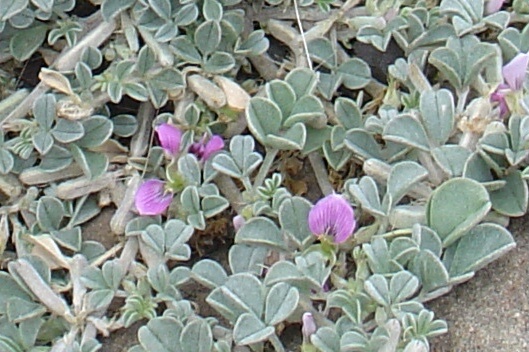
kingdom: Plantae
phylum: Tracheophyta
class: Magnoliopsida
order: Fabales
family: Fabaceae
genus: Indigastrum
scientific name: Indigastrum argyroides
